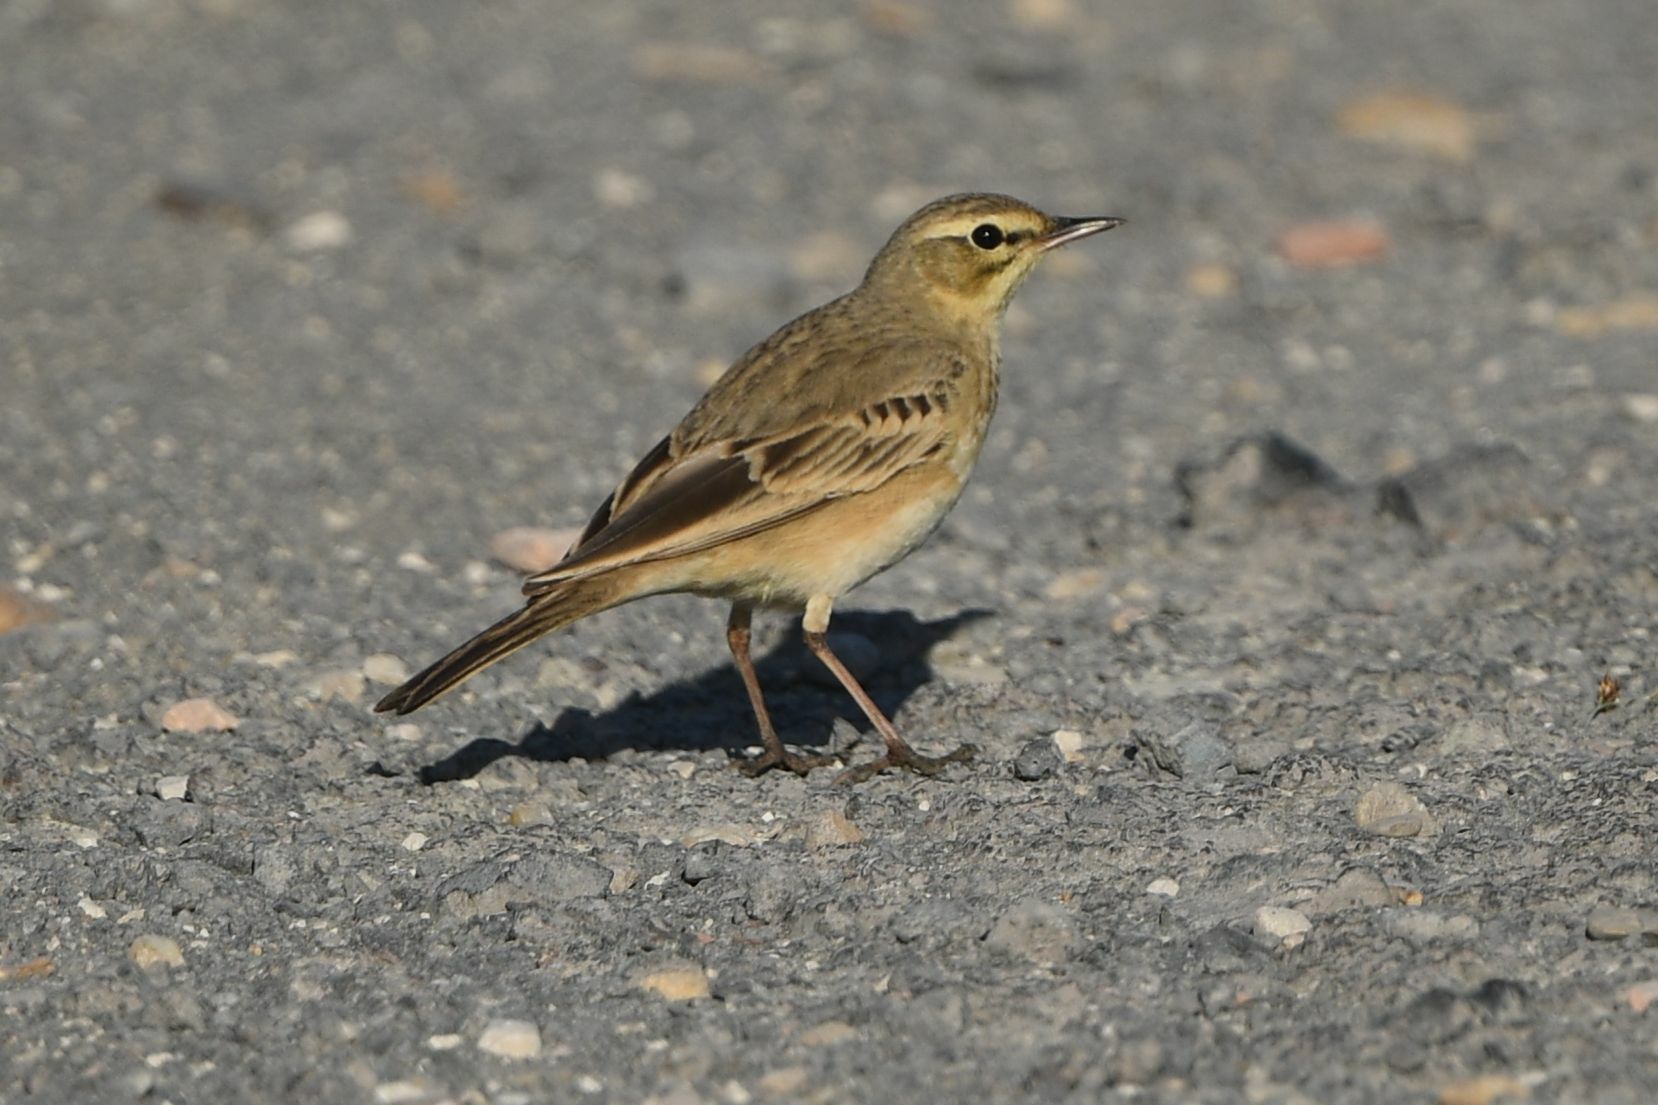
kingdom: Animalia
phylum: Chordata
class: Aves
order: Passeriformes
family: Motacillidae
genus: Anthus
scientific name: Anthus campestris
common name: Tawny pipit
